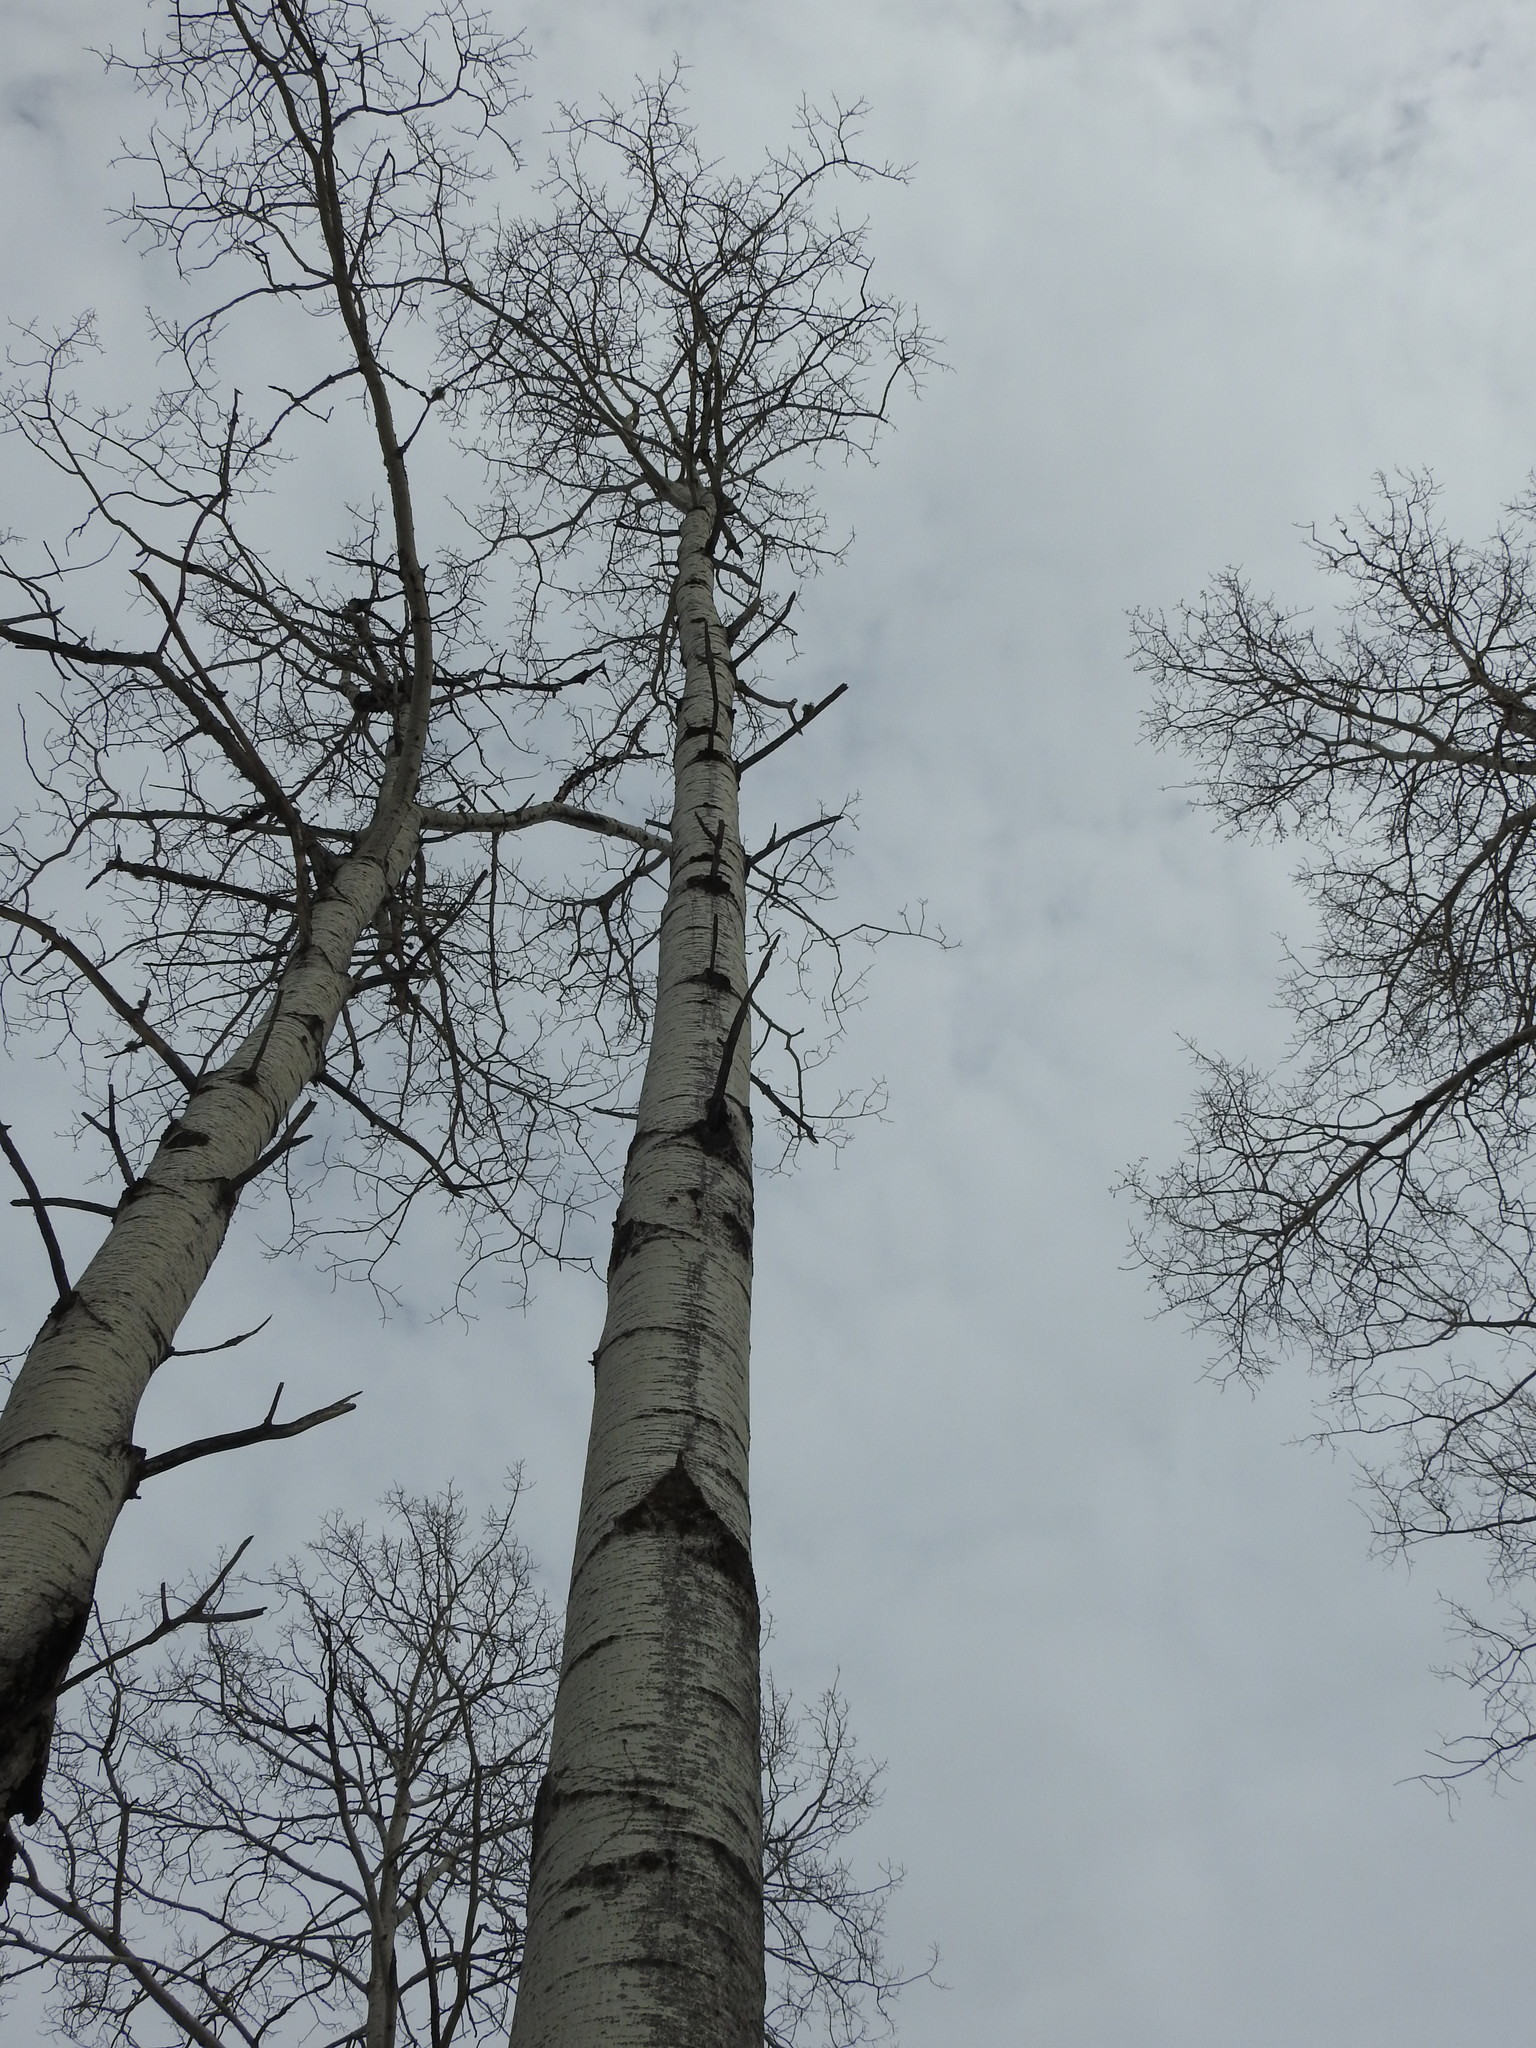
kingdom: Plantae
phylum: Tracheophyta
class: Magnoliopsida
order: Malpighiales
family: Salicaceae
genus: Populus
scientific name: Populus tremuloides
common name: Quaking aspen
